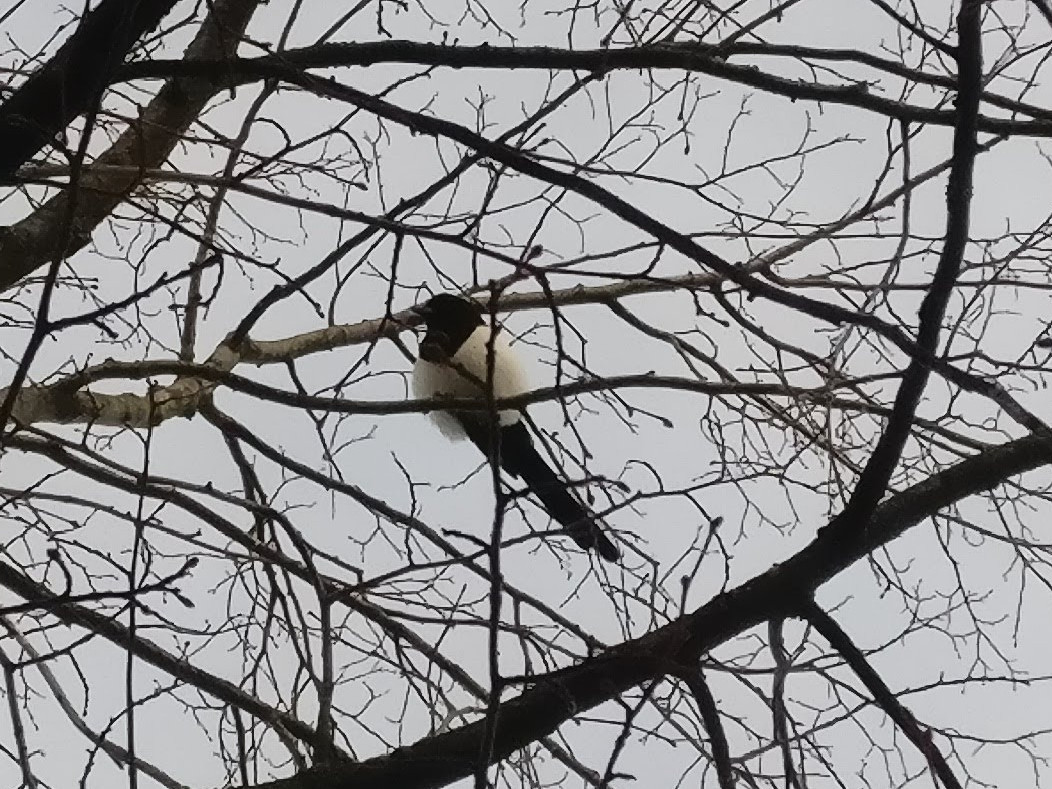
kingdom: Animalia
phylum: Chordata
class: Aves
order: Passeriformes
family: Corvidae
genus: Pica
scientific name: Pica pica
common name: Eurasian magpie
